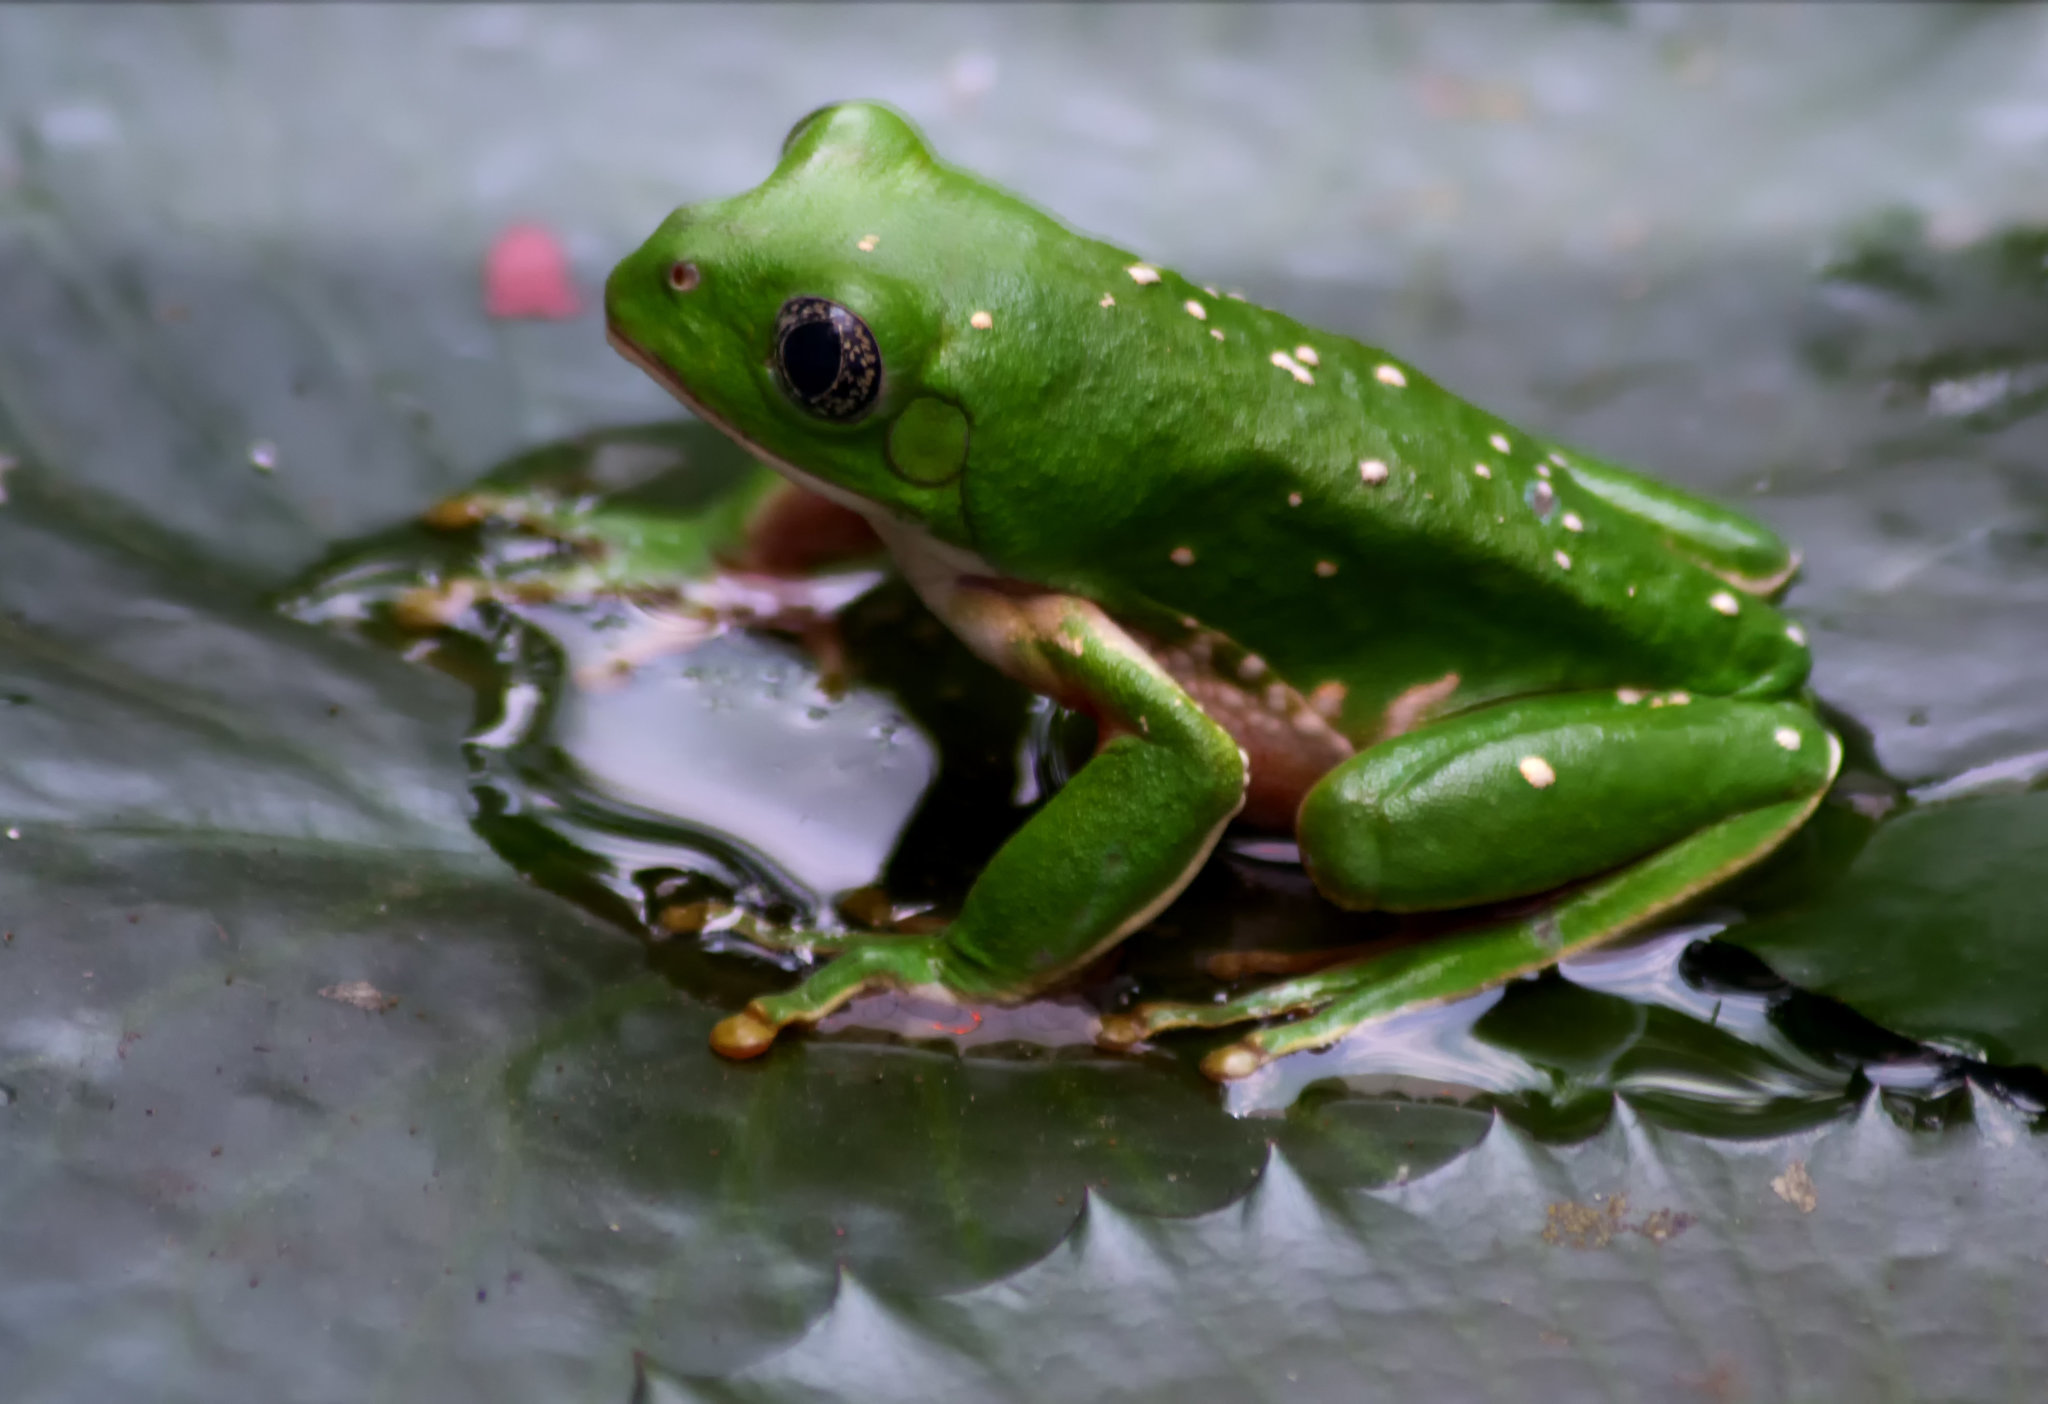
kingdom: Animalia
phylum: Chordata
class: Amphibia
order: Anura
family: Phyllomedusidae
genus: Agalychnis
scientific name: Agalychnis dacnicolor
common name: Mexican giant tree frog
